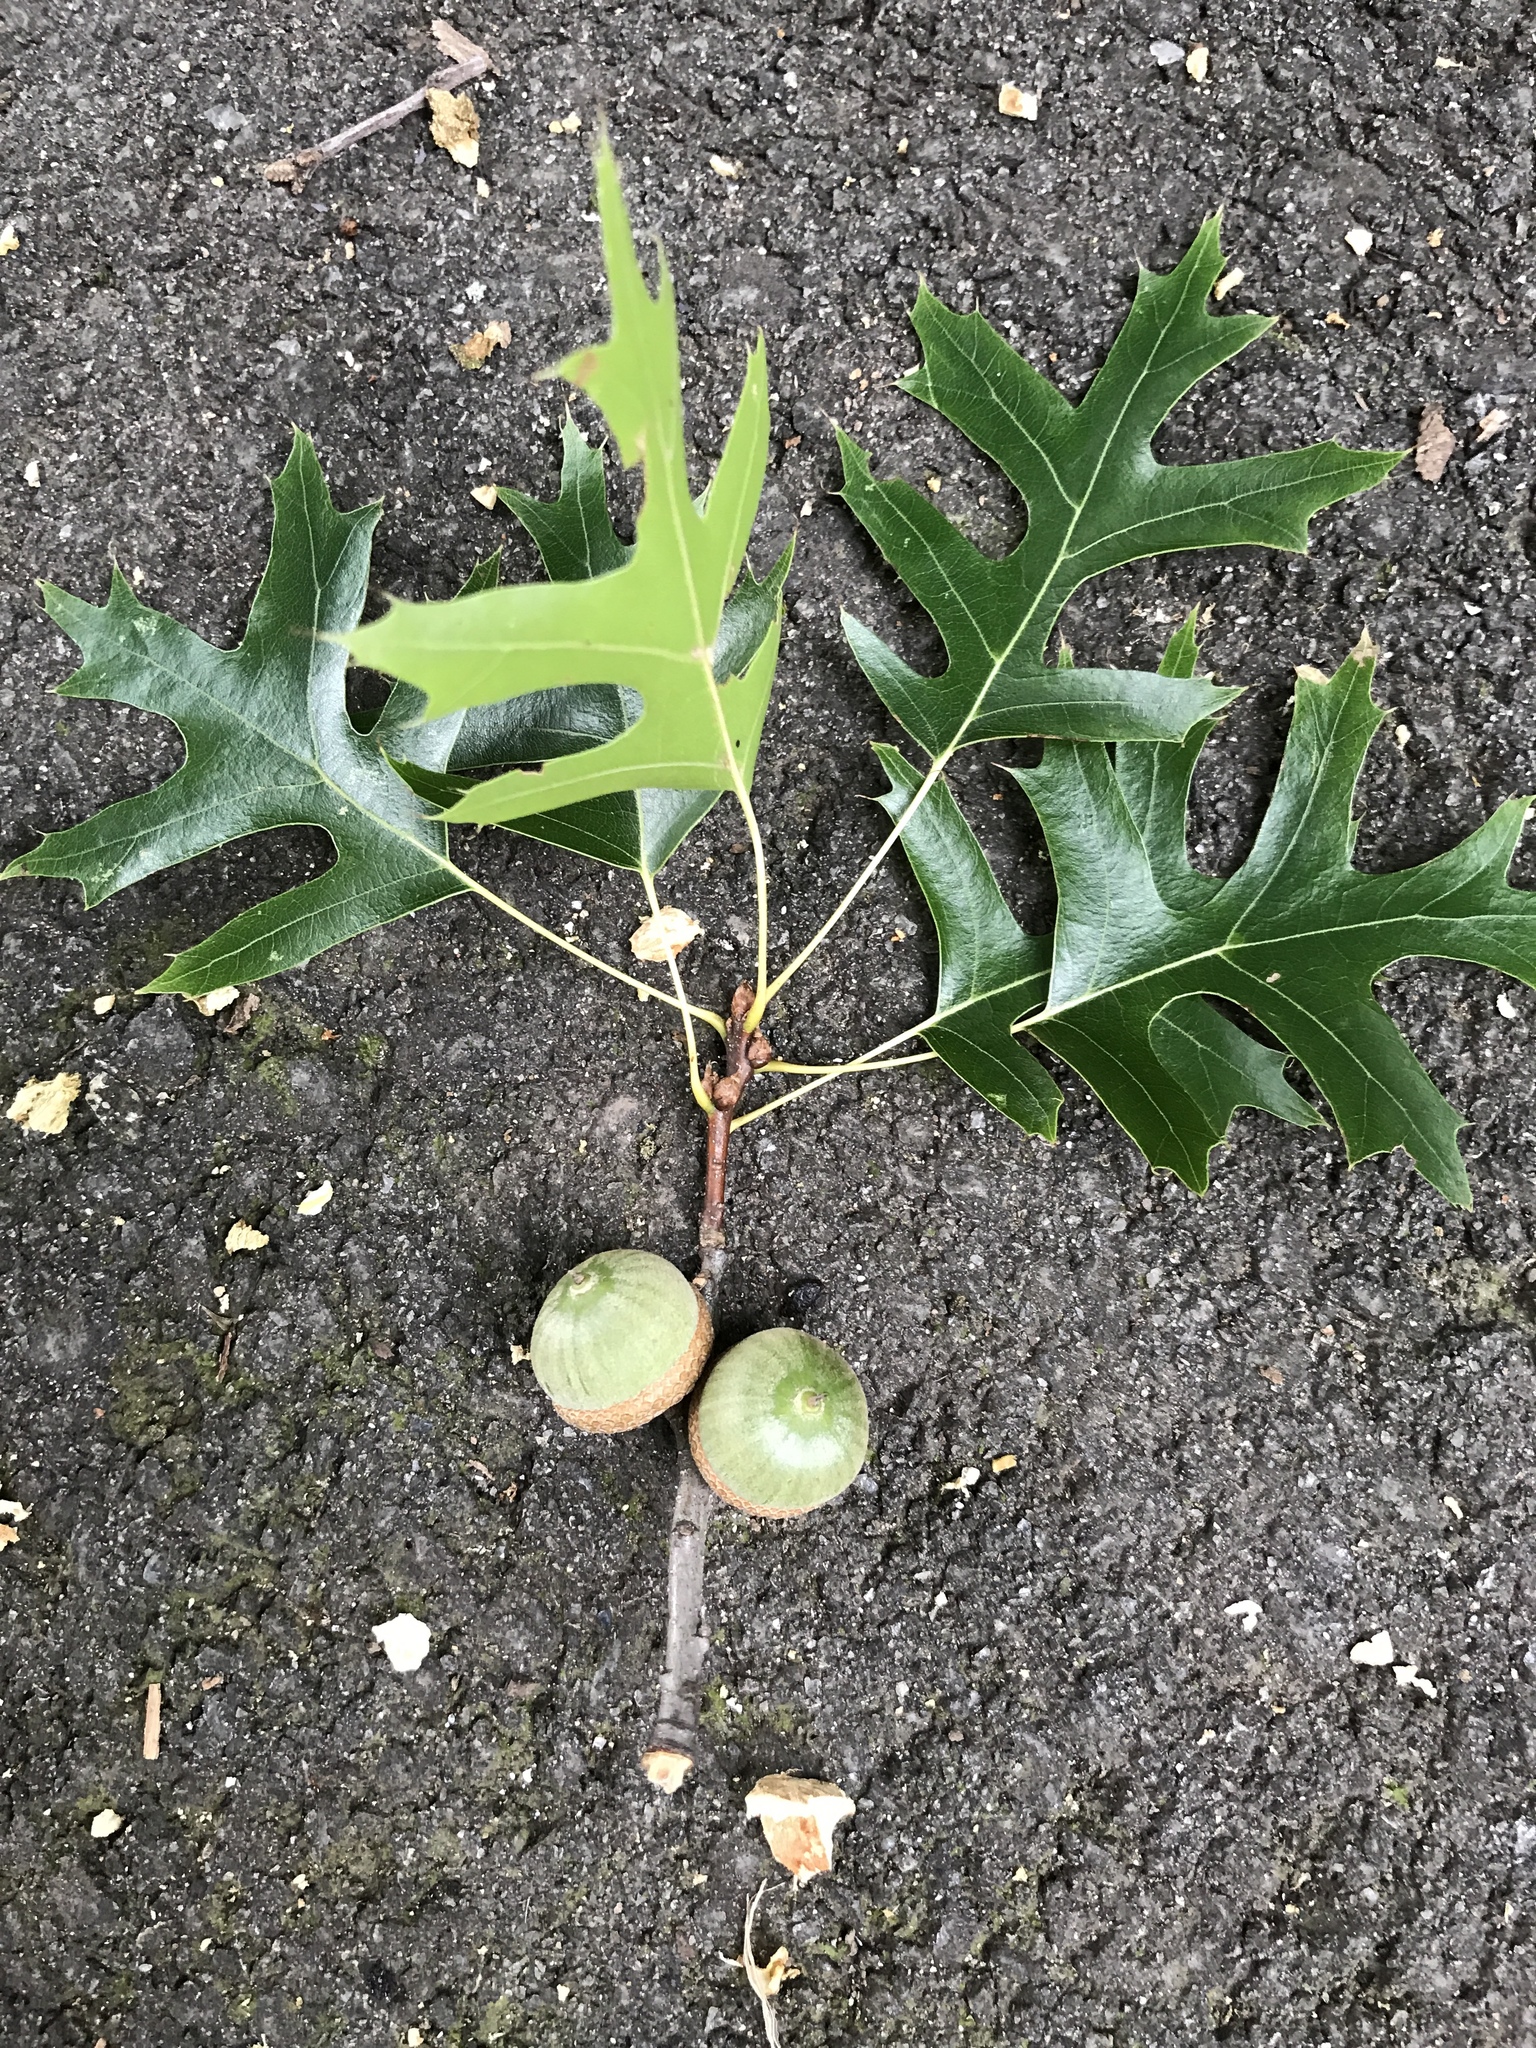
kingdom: Plantae
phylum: Tracheophyta
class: Magnoliopsida
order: Fagales
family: Fagaceae
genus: Quercus
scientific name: Quercus palustris
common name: Pin oak
